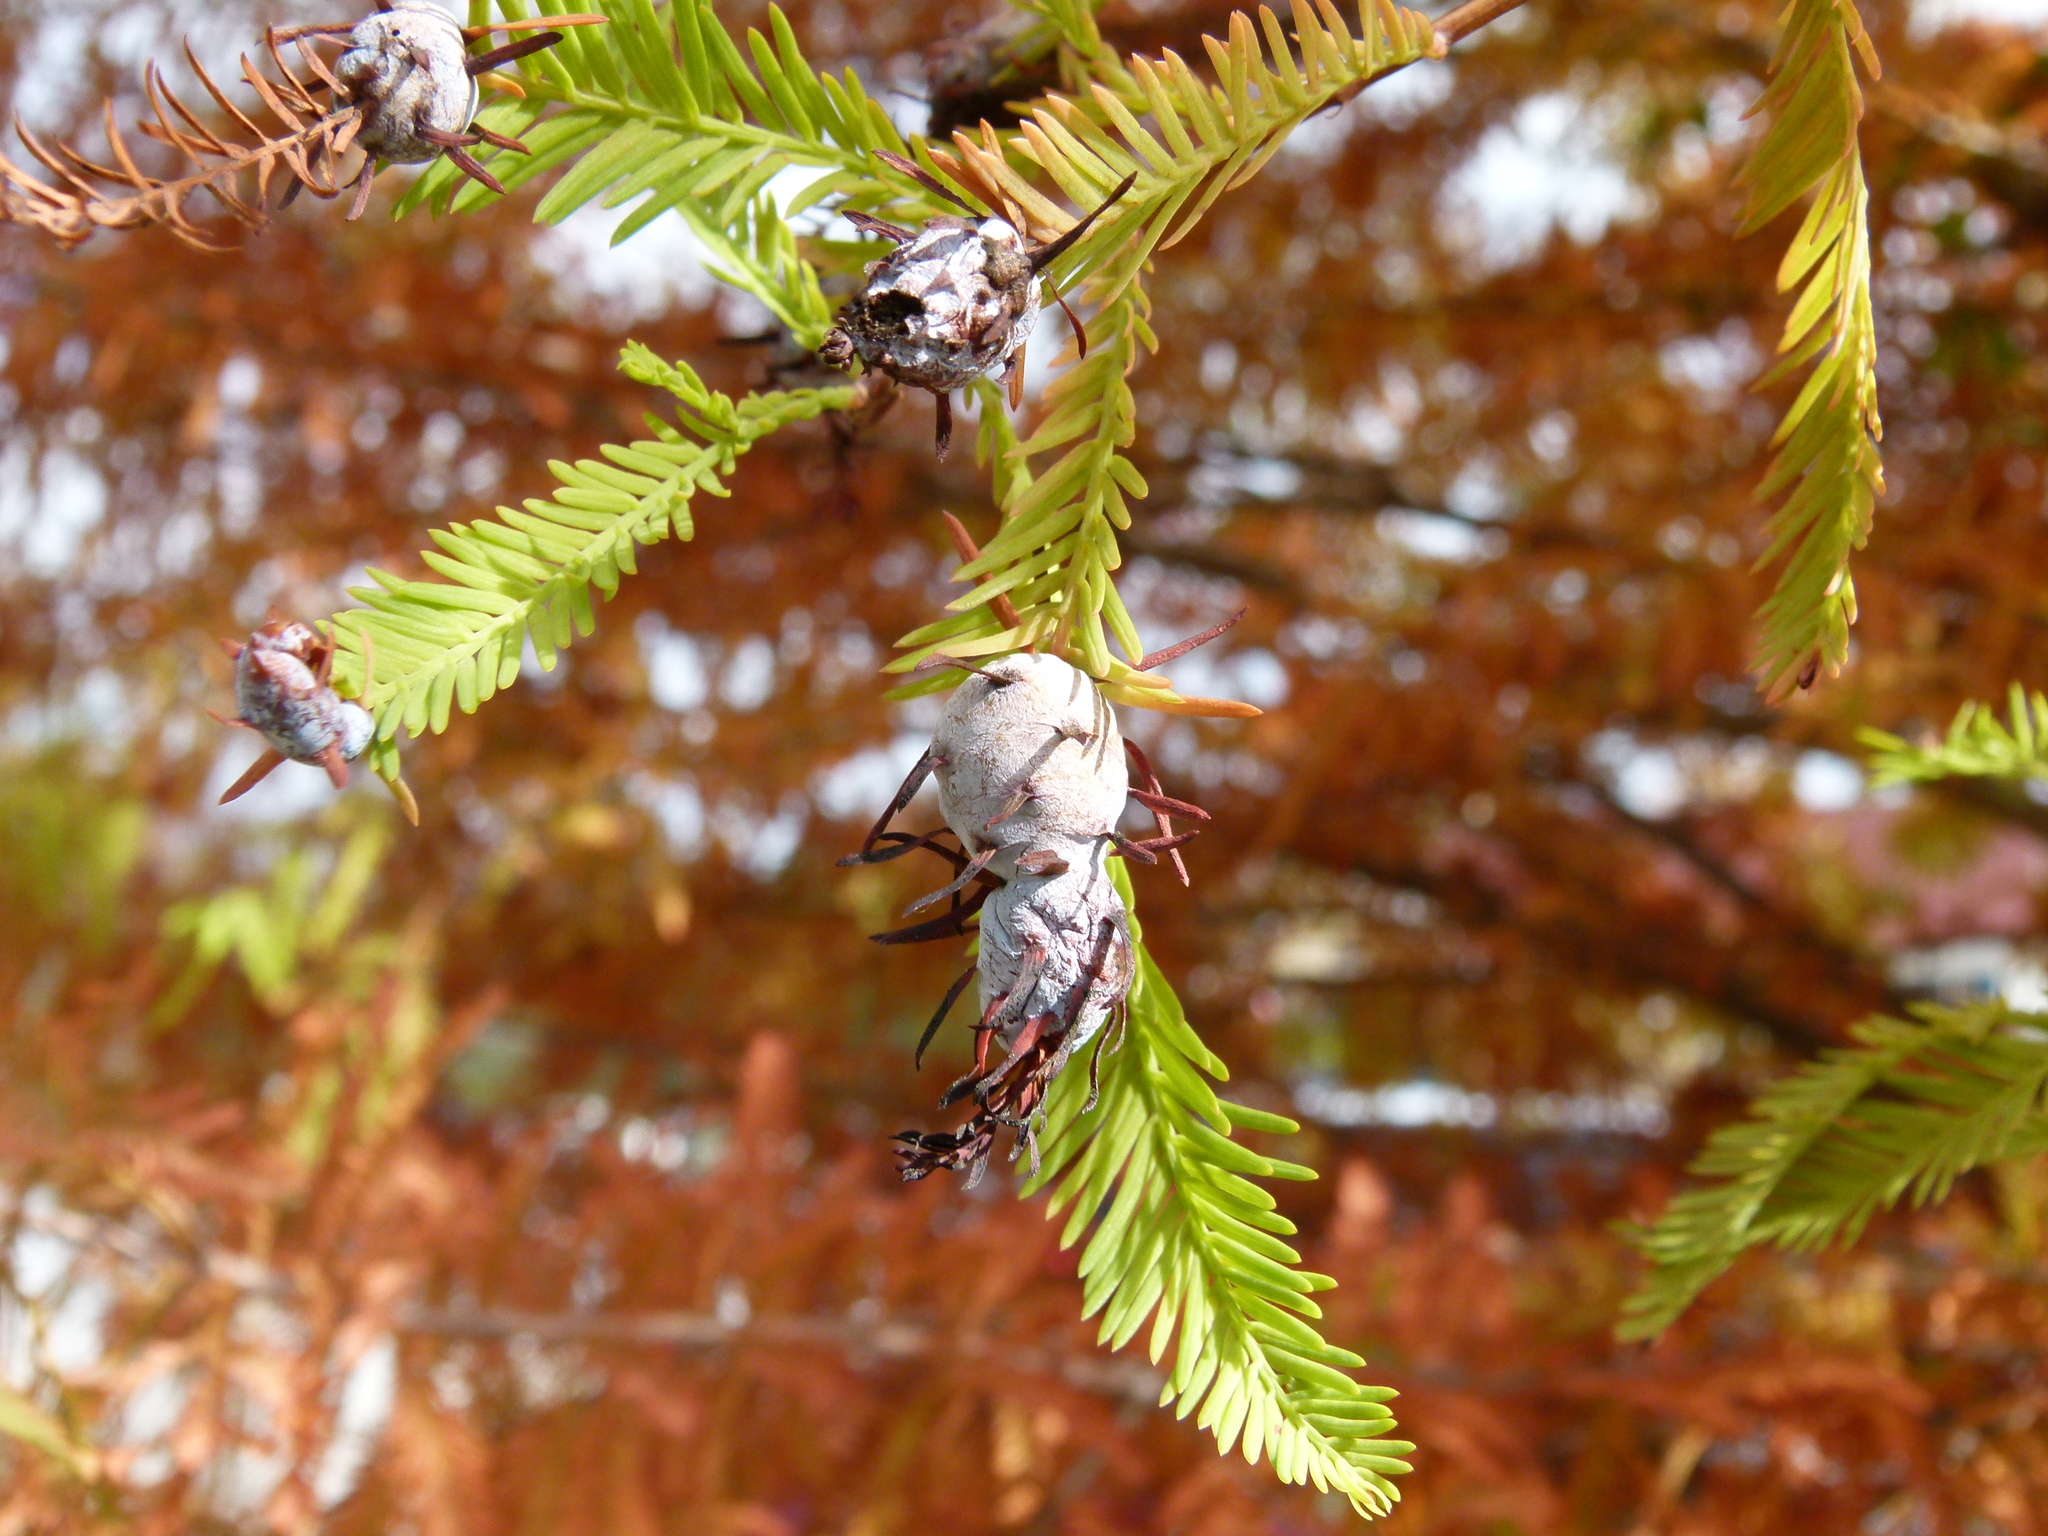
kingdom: Animalia
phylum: Arthropoda
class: Insecta
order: Diptera
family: Cecidomyiidae
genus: Taxodiomyia
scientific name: Taxodiomyia cupressiananassa
